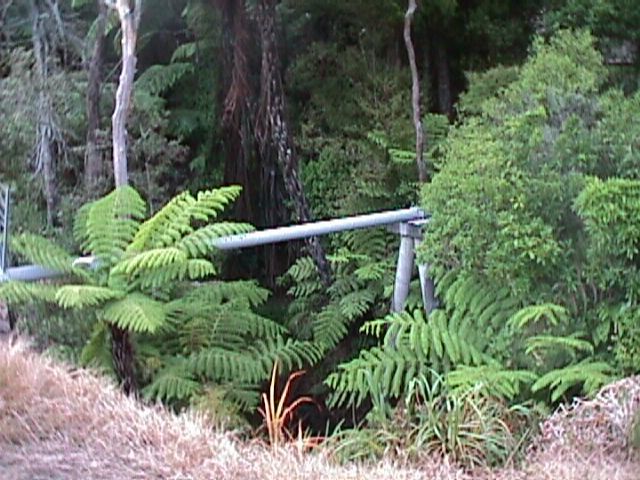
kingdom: Plantae
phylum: Tracheophyta
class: Polypodiopsida
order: Cyatheales
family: Cyatheaceae
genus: Alsophila
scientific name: Alsophila dealbata
